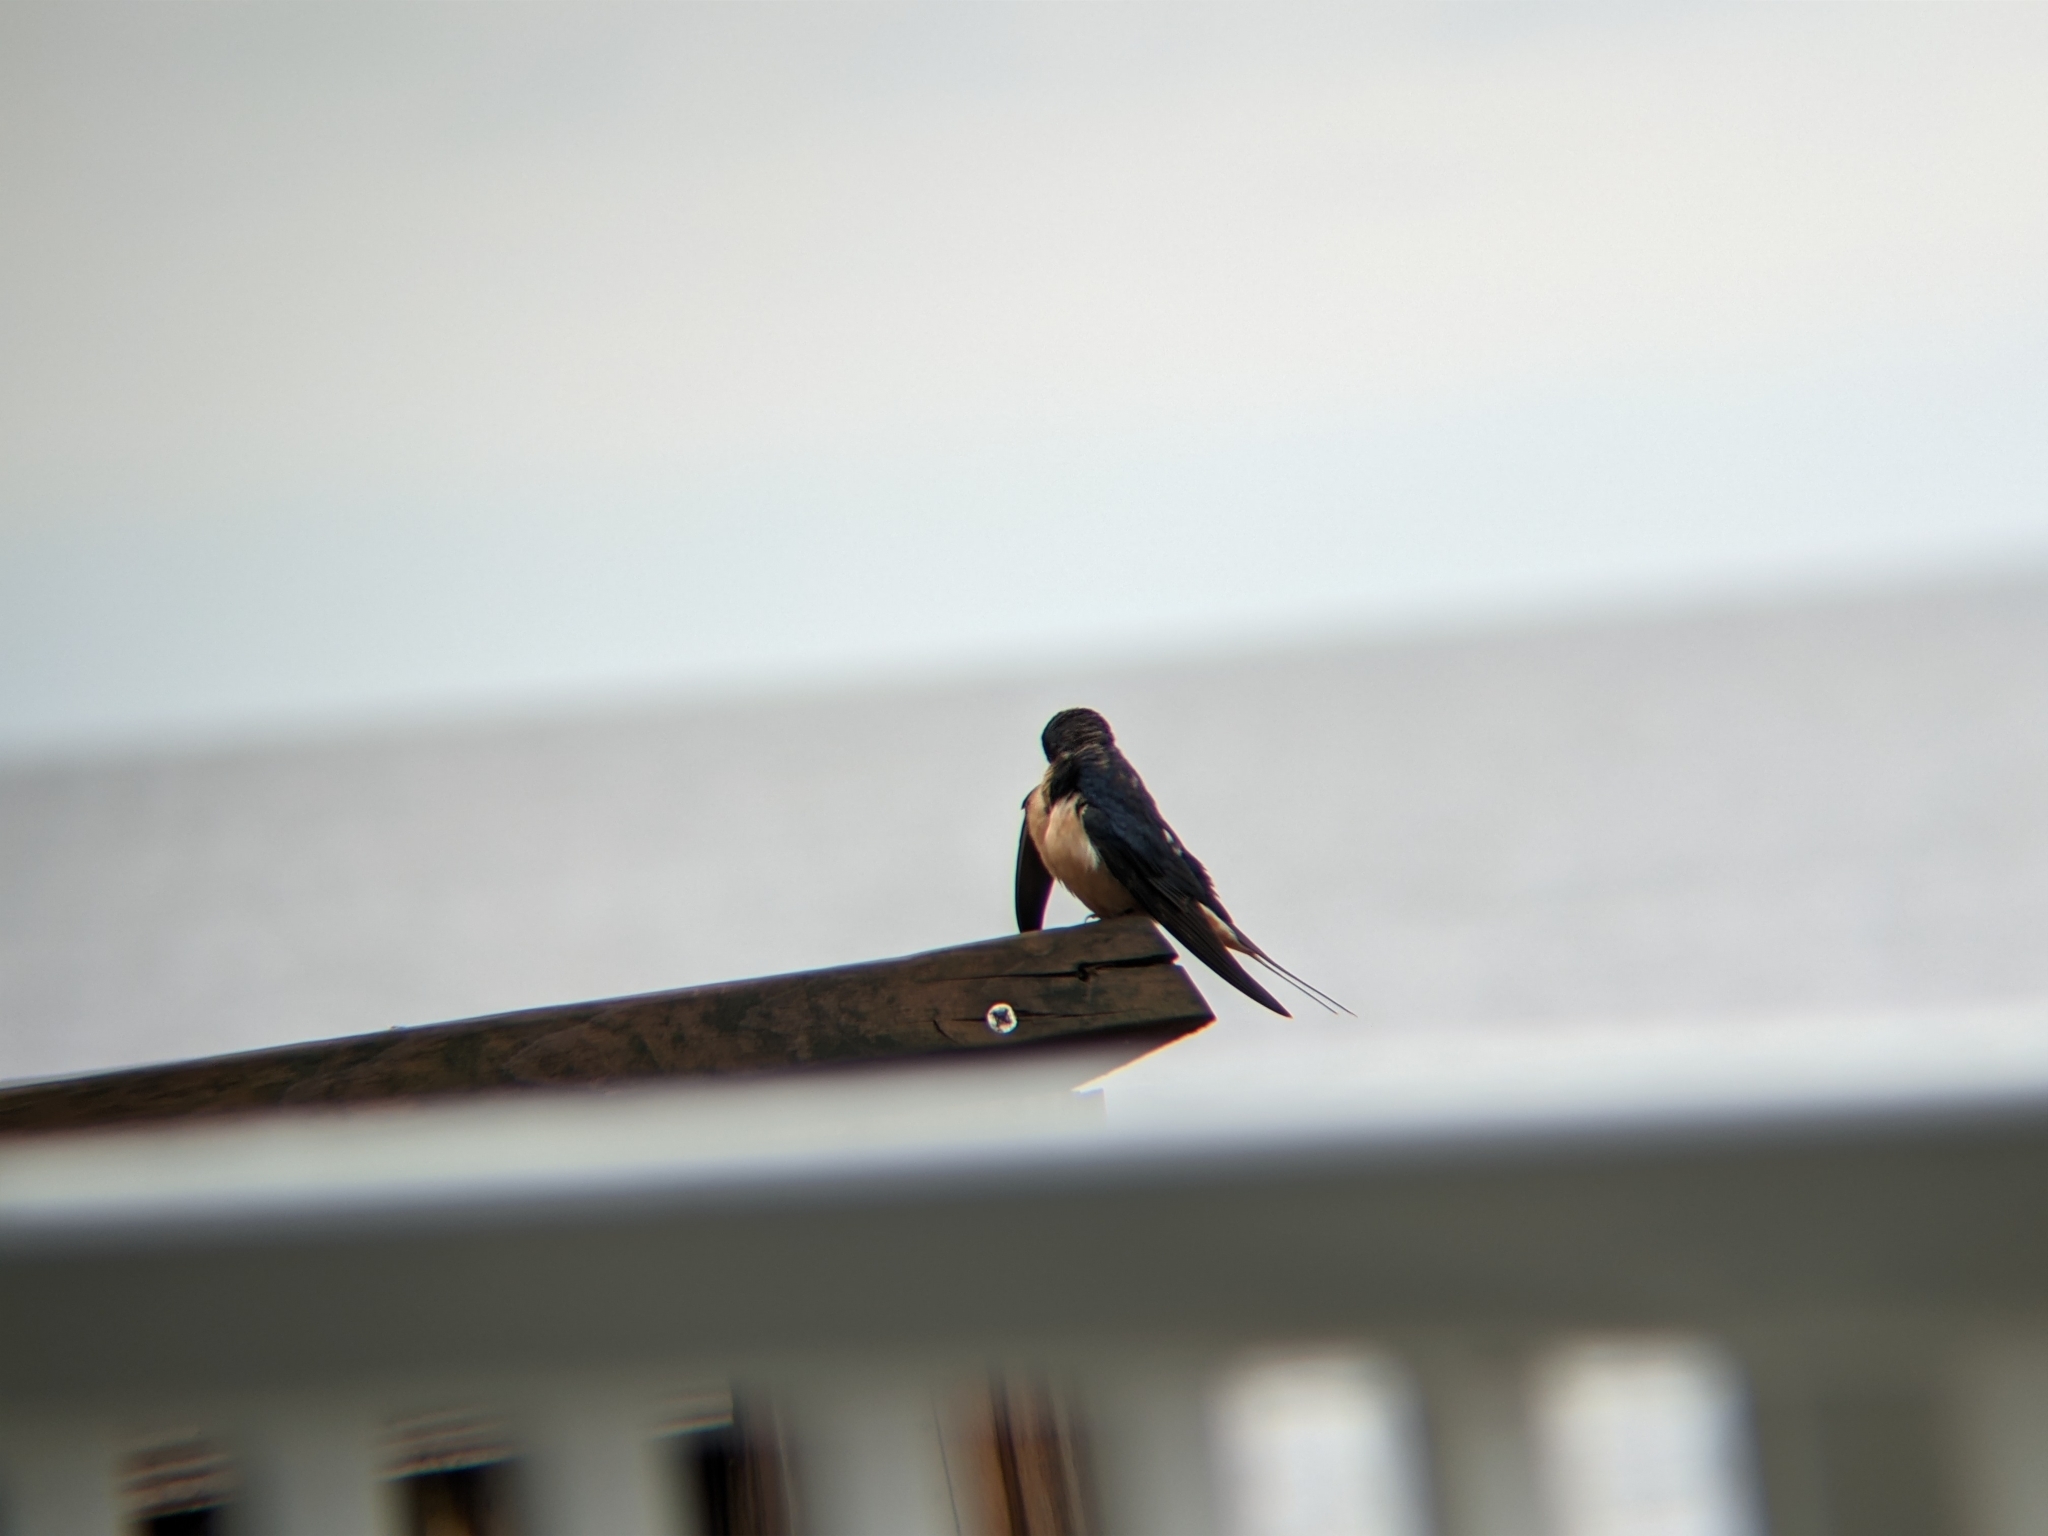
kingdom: Animalia
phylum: Chordata
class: Aves
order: Passeriformes
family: Hirundinidae
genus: Hirundo
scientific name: Hirundo rustica
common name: Barn swallow
